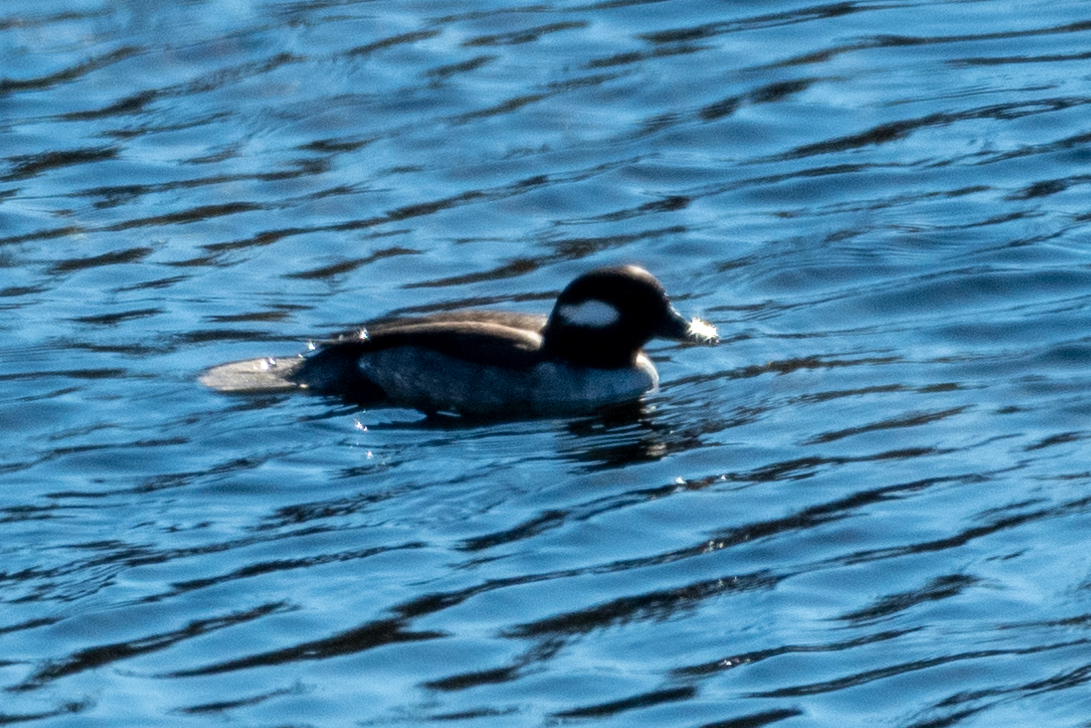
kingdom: Animalia
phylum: Chordata
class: Aves
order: Anseriformes
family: Anatidae
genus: Bucephala
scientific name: Bucephala albeola
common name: Bufflehead
